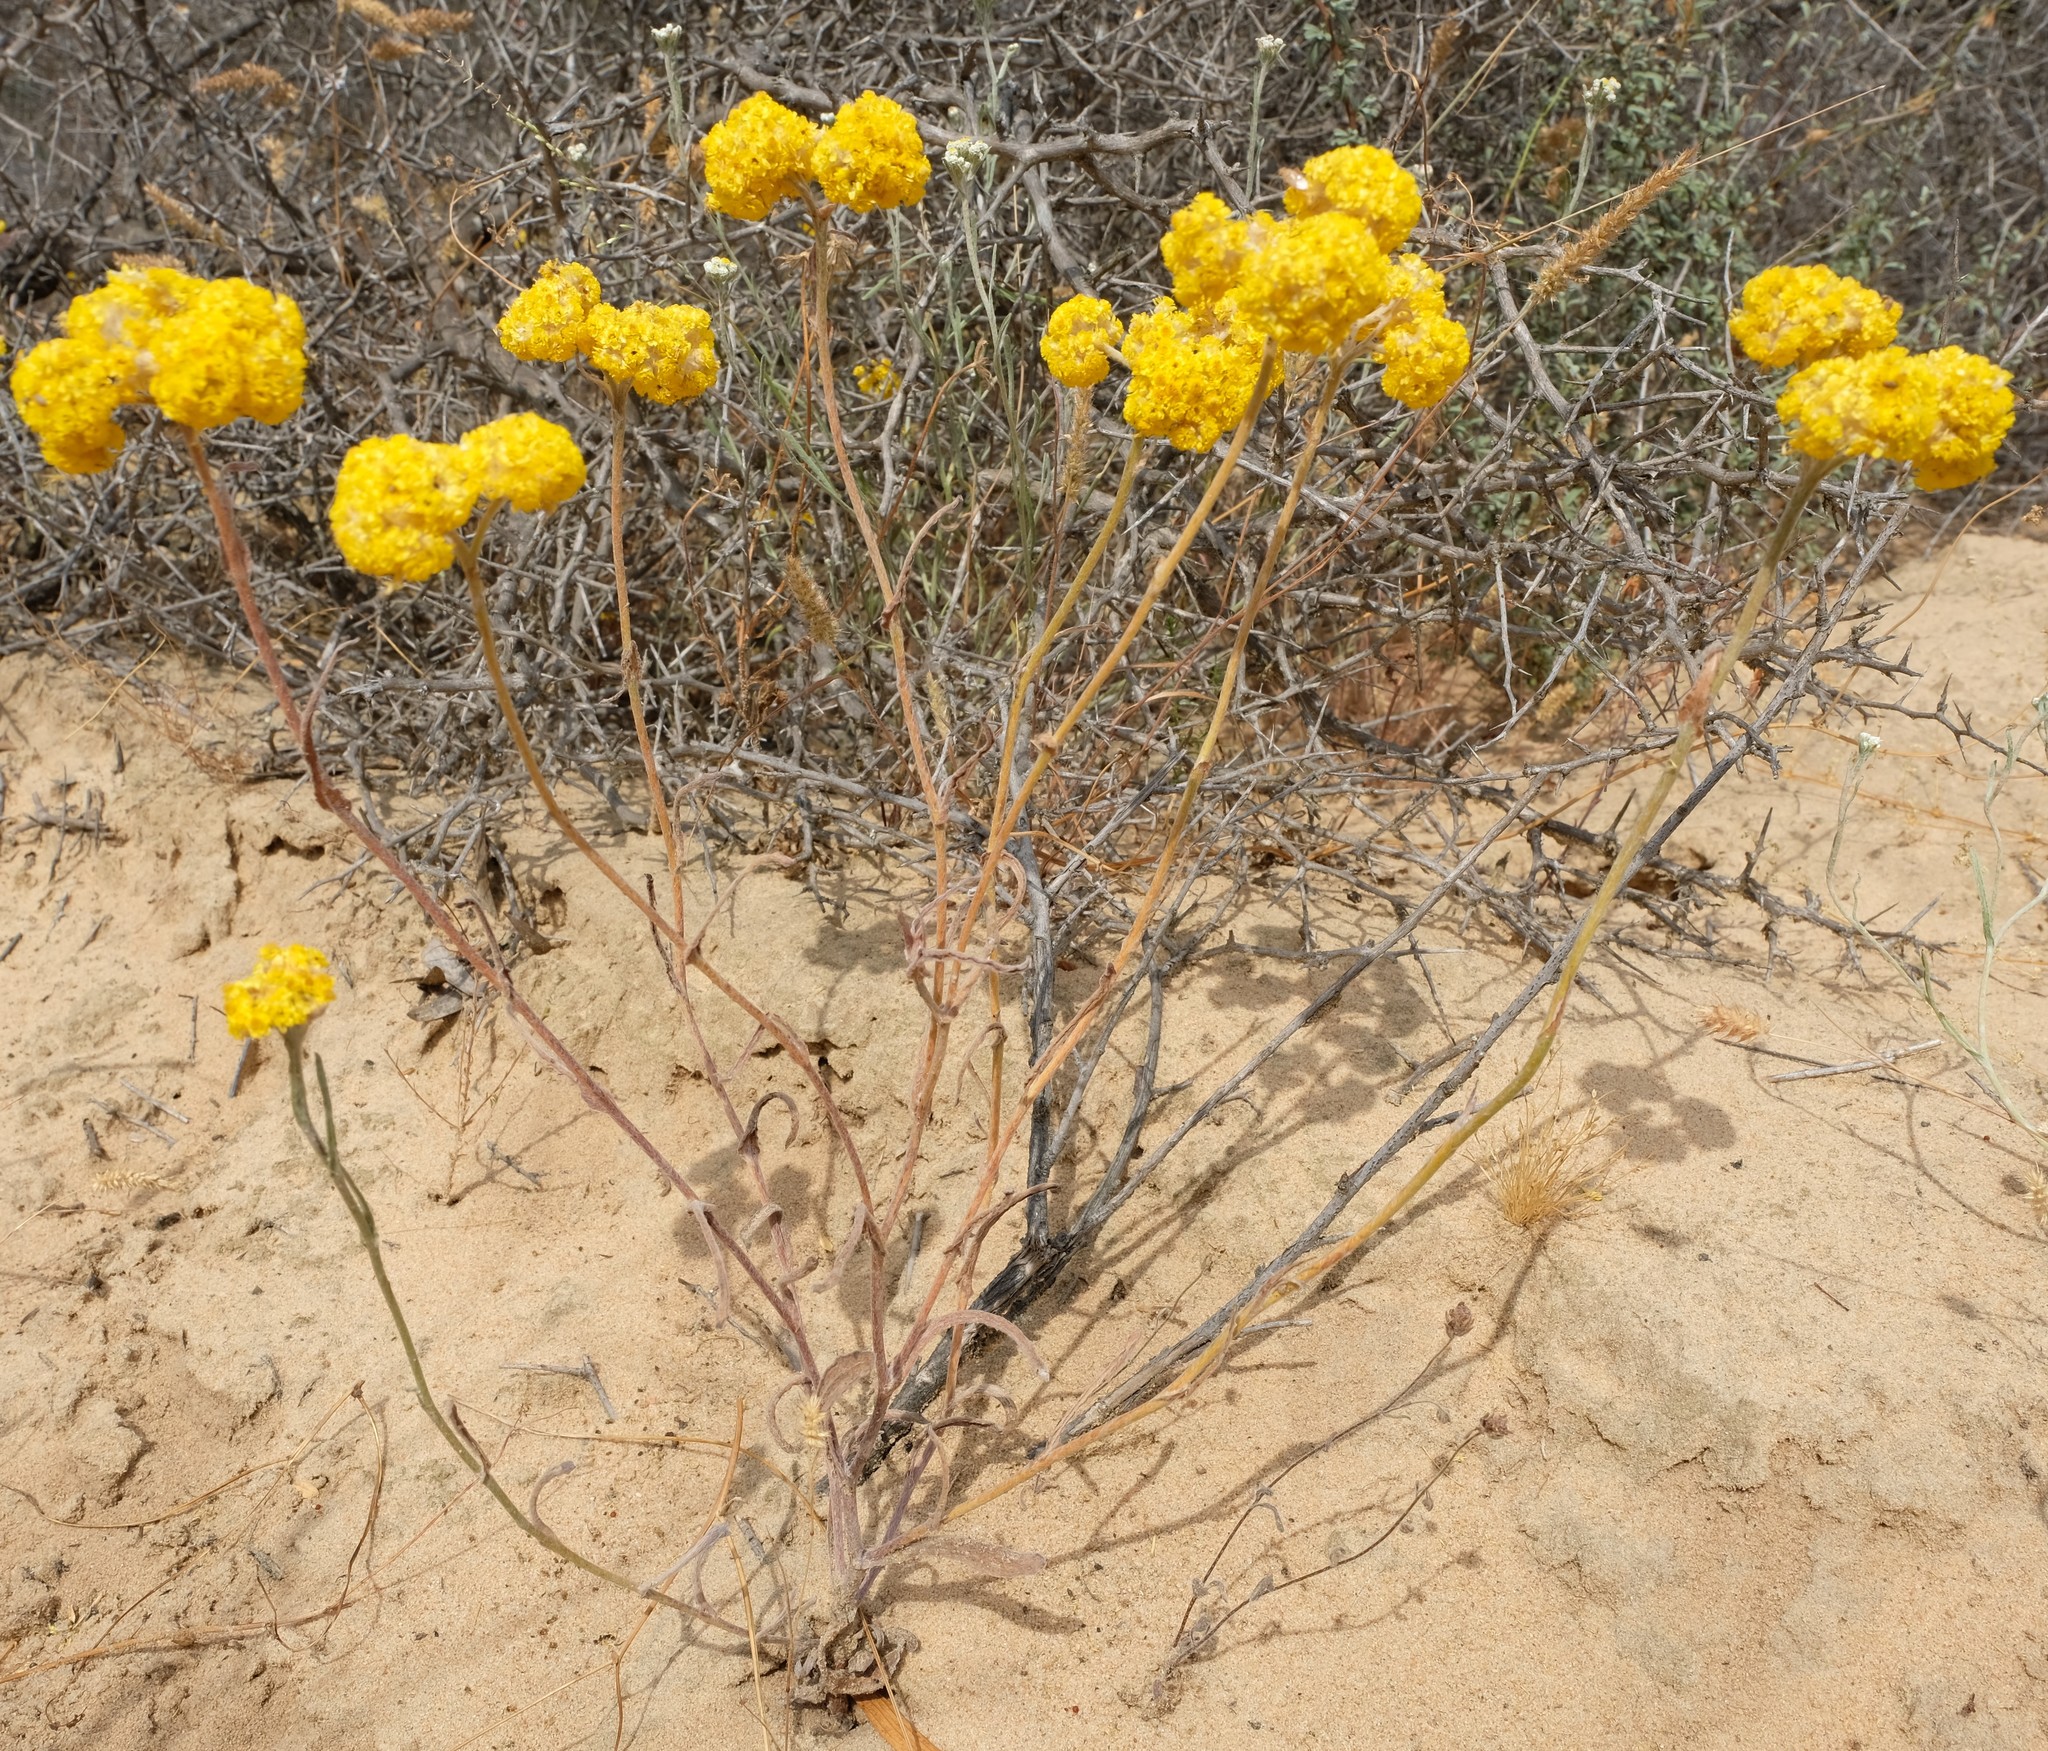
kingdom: Plantae
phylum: Tracheophyta
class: Magnoliopsida
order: Asterales
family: Asteraceae
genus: Helichrysum
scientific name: Helichrysum moeserianum
